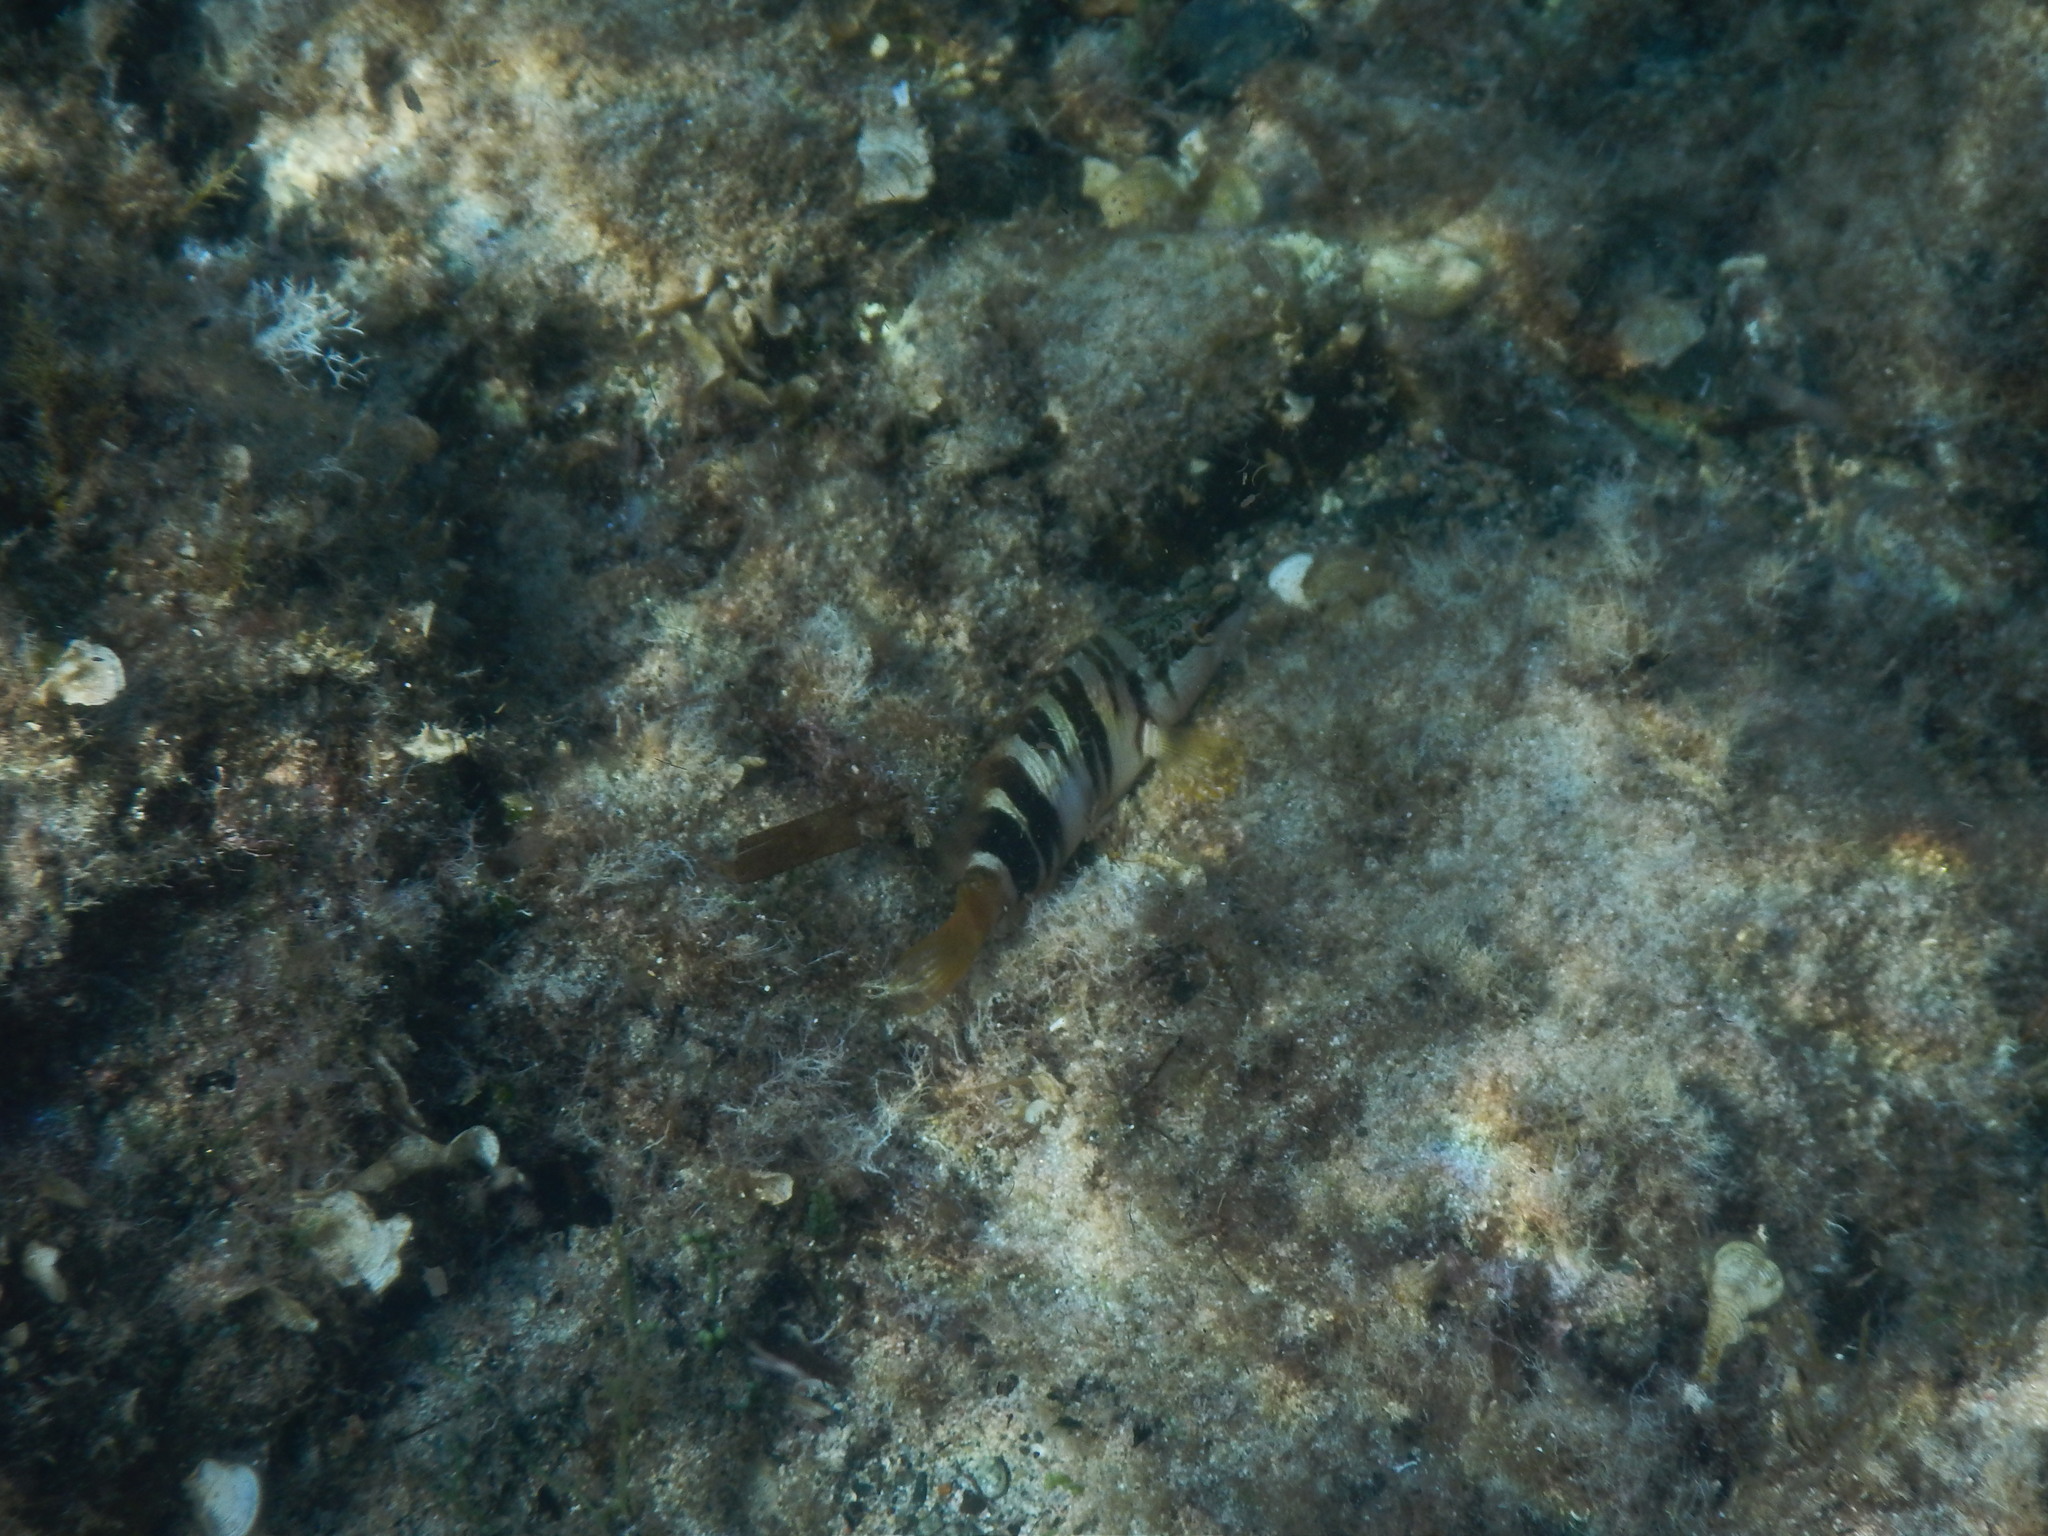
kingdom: Animalia
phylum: Chordata
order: Perciformes
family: Serranidae
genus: Serranus
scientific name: Serranus scriba
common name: Painted comber
